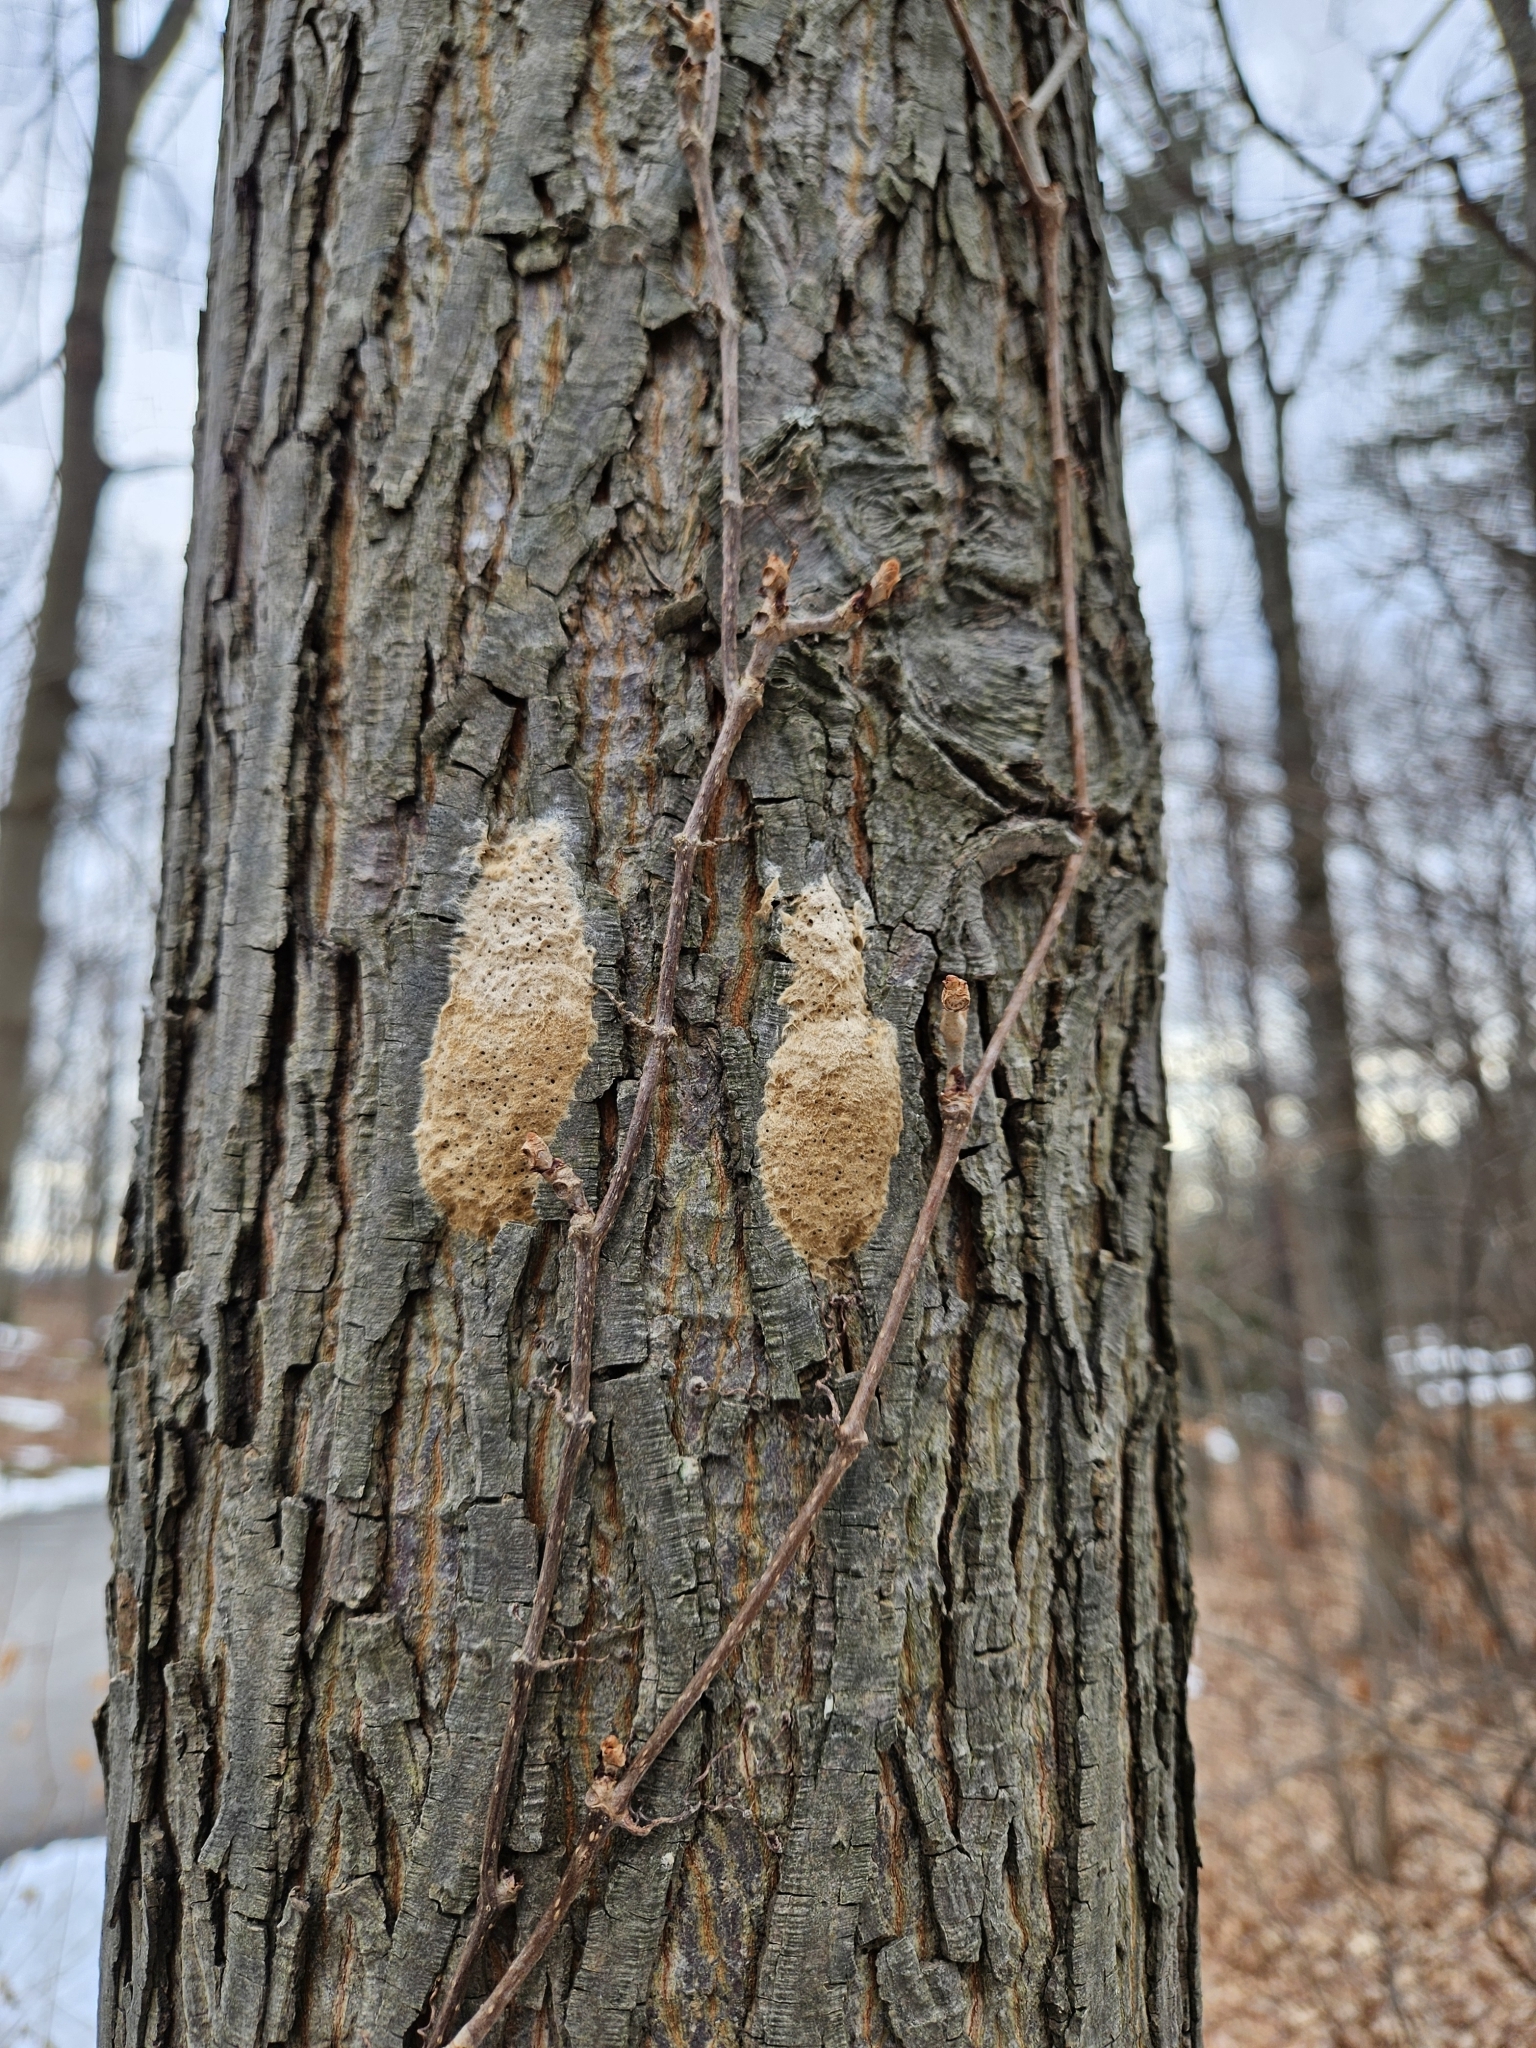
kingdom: Animalia
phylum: Arthropoda
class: Insecta
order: Lepidoptera
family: Erebidae
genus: Lymantria
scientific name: Lymantria dispar
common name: Gypsy moth
